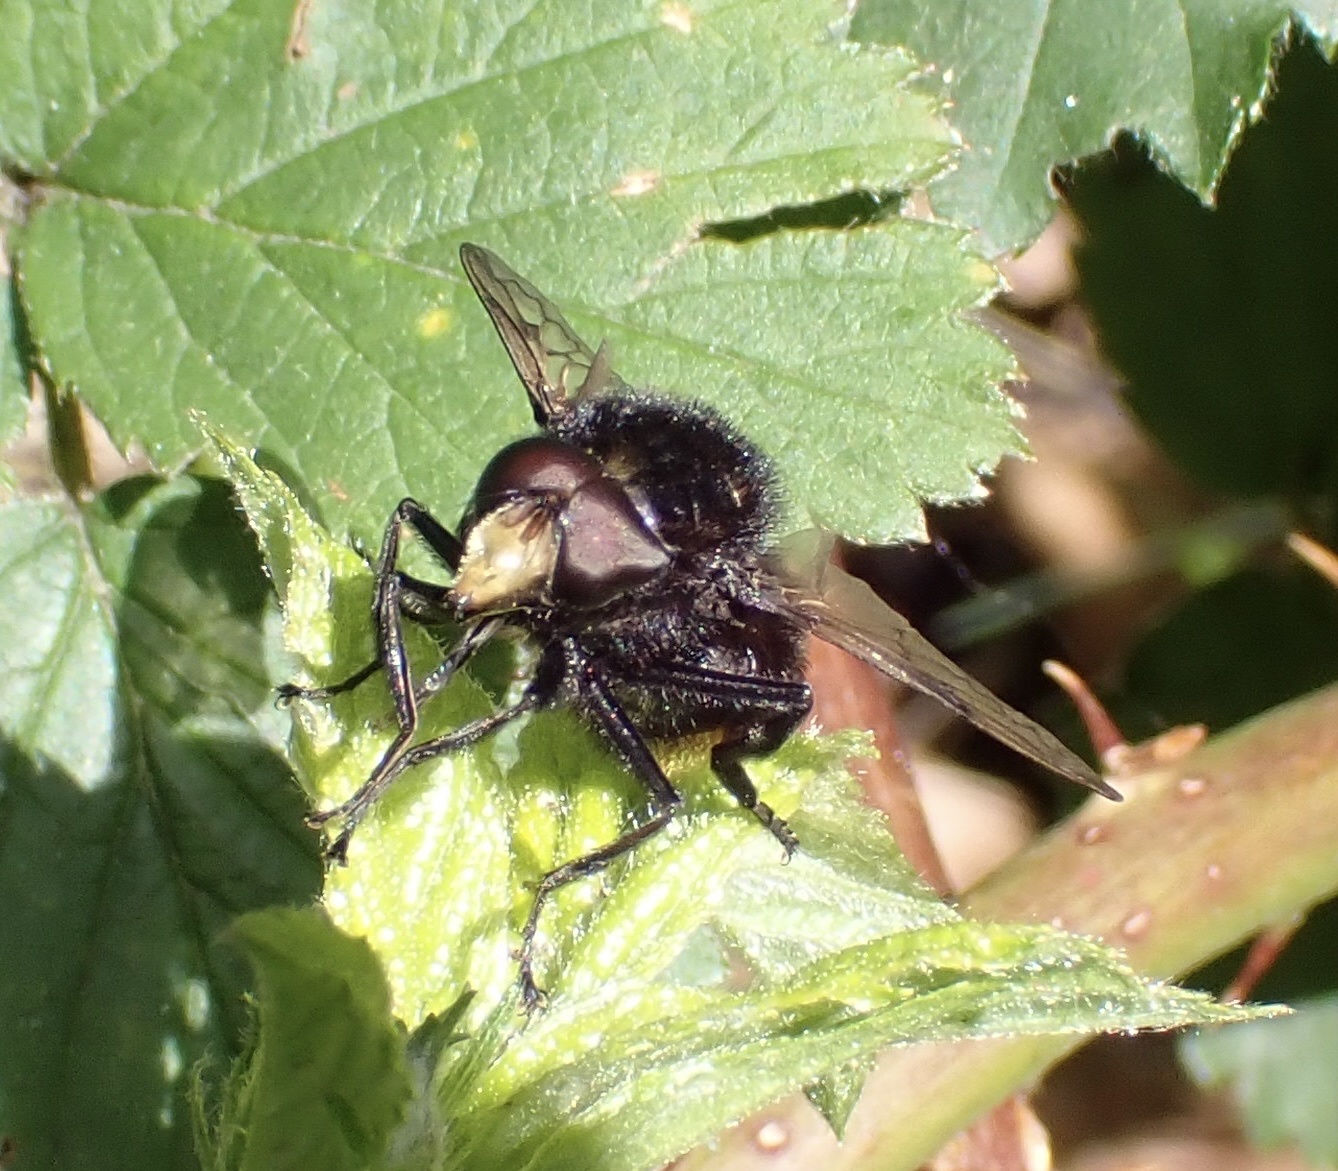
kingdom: Animalia
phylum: Arthropoda
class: Insecta
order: Diptera
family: Syrphidae
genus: Volucella
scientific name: Volucella bombylans
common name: Bumble bee hover fly
